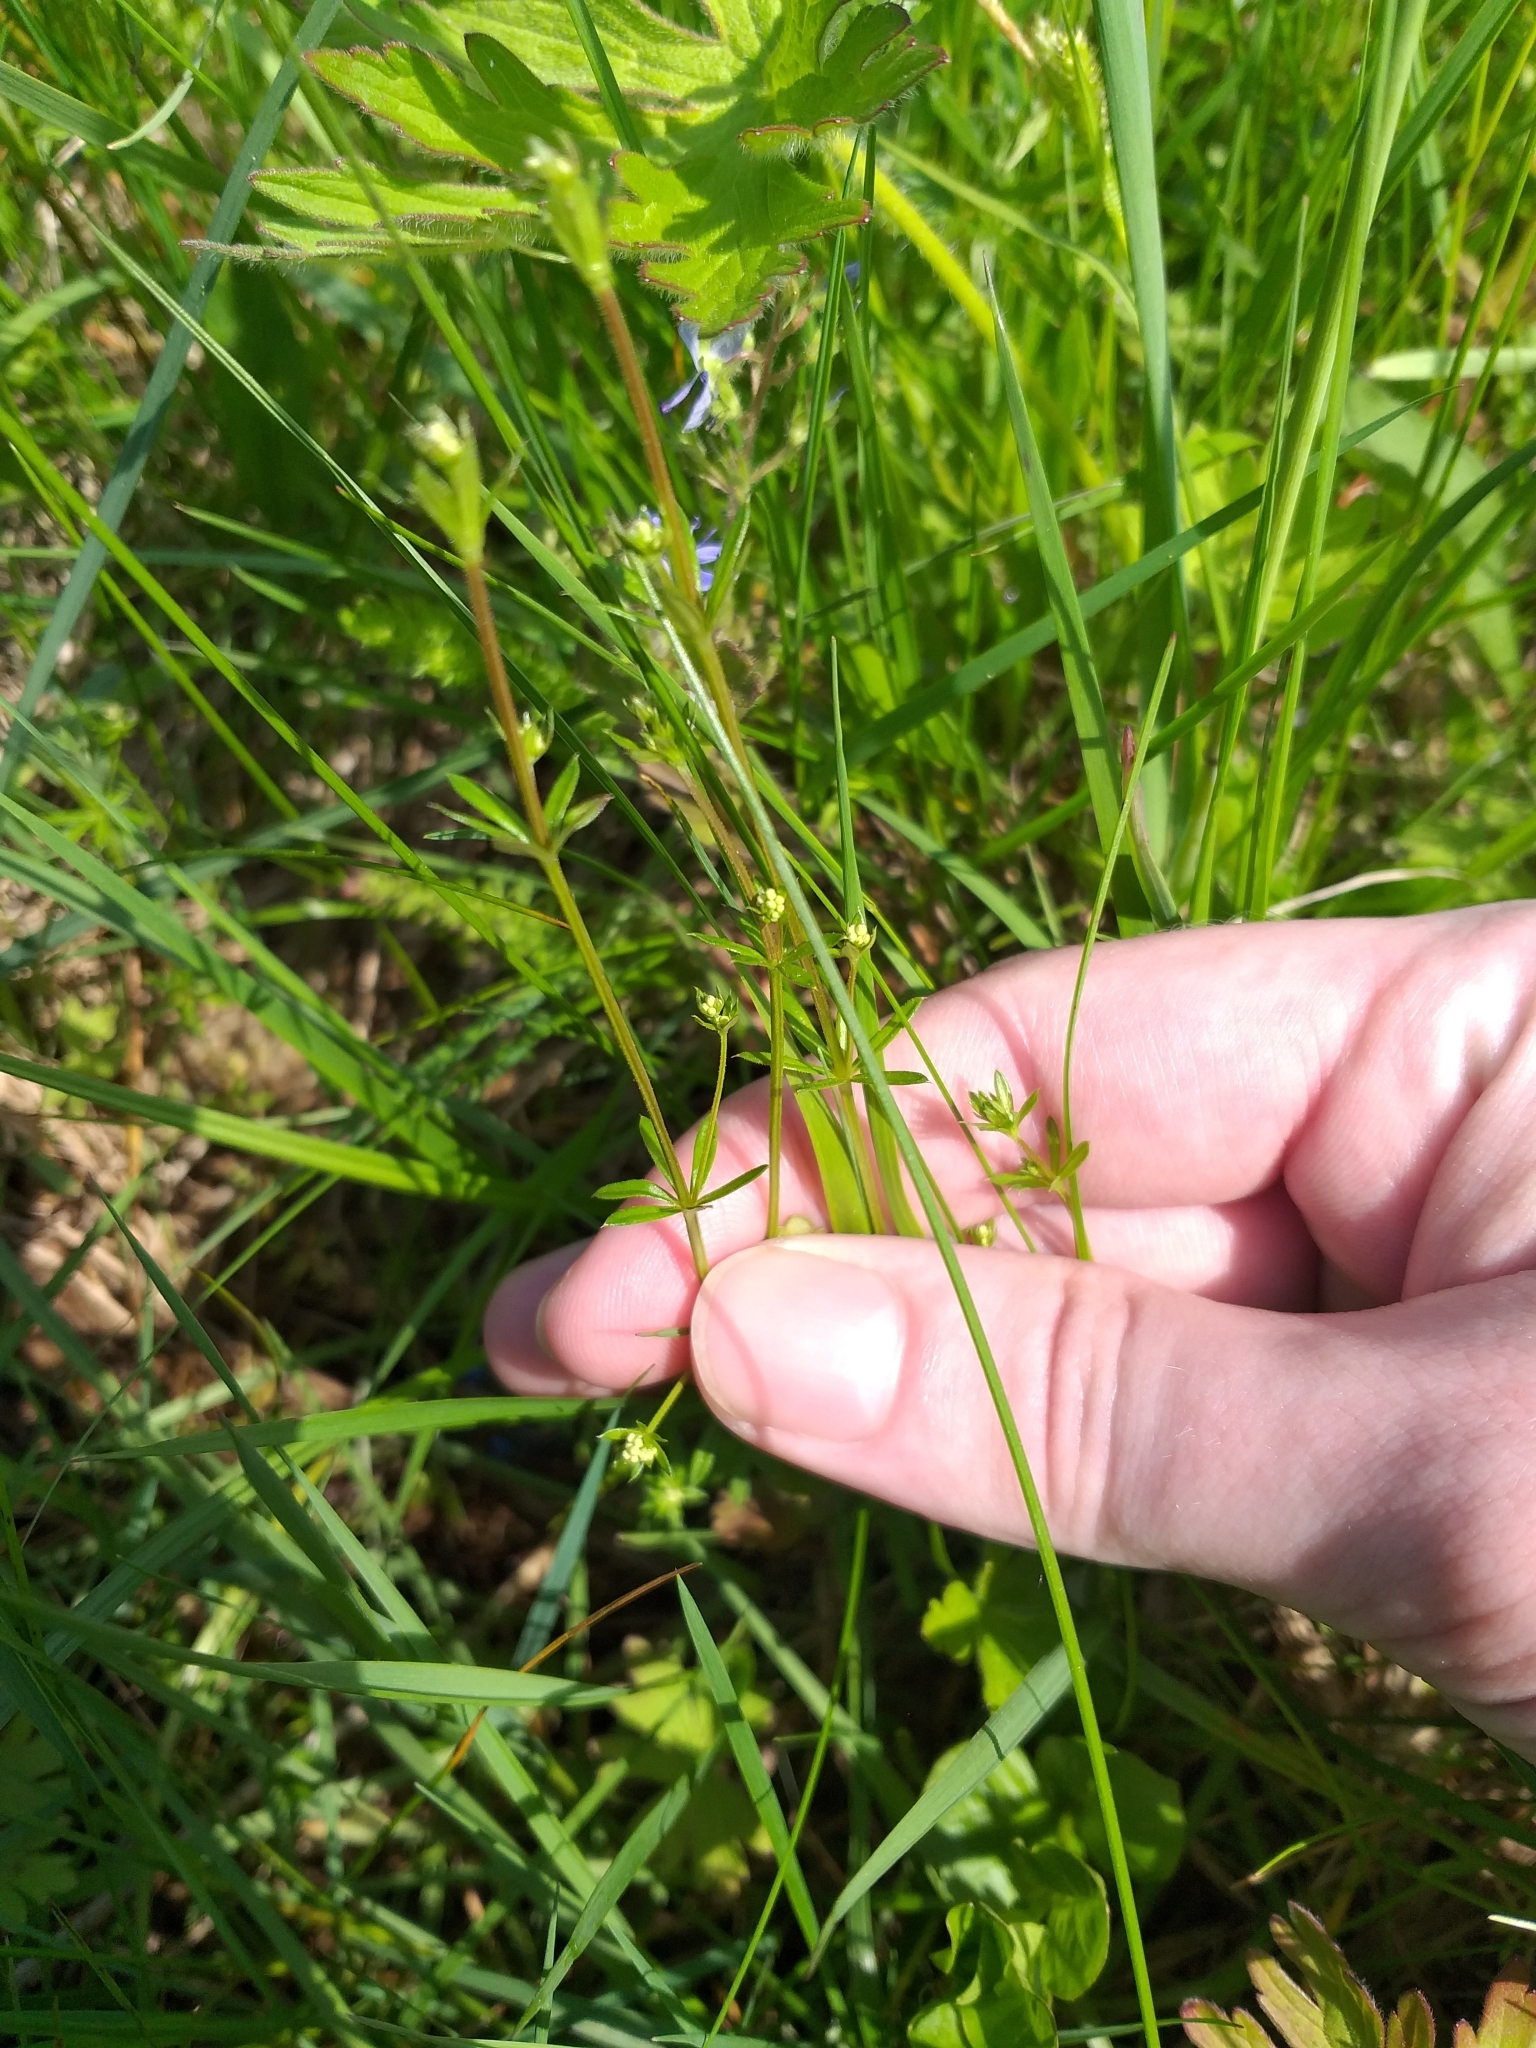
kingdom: Plantae
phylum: Tracheophyta
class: Magnoliopsida
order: Gentianales
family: Rubiaceae
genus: Galium
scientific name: Galium uliginosum
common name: Fen bedstraw
